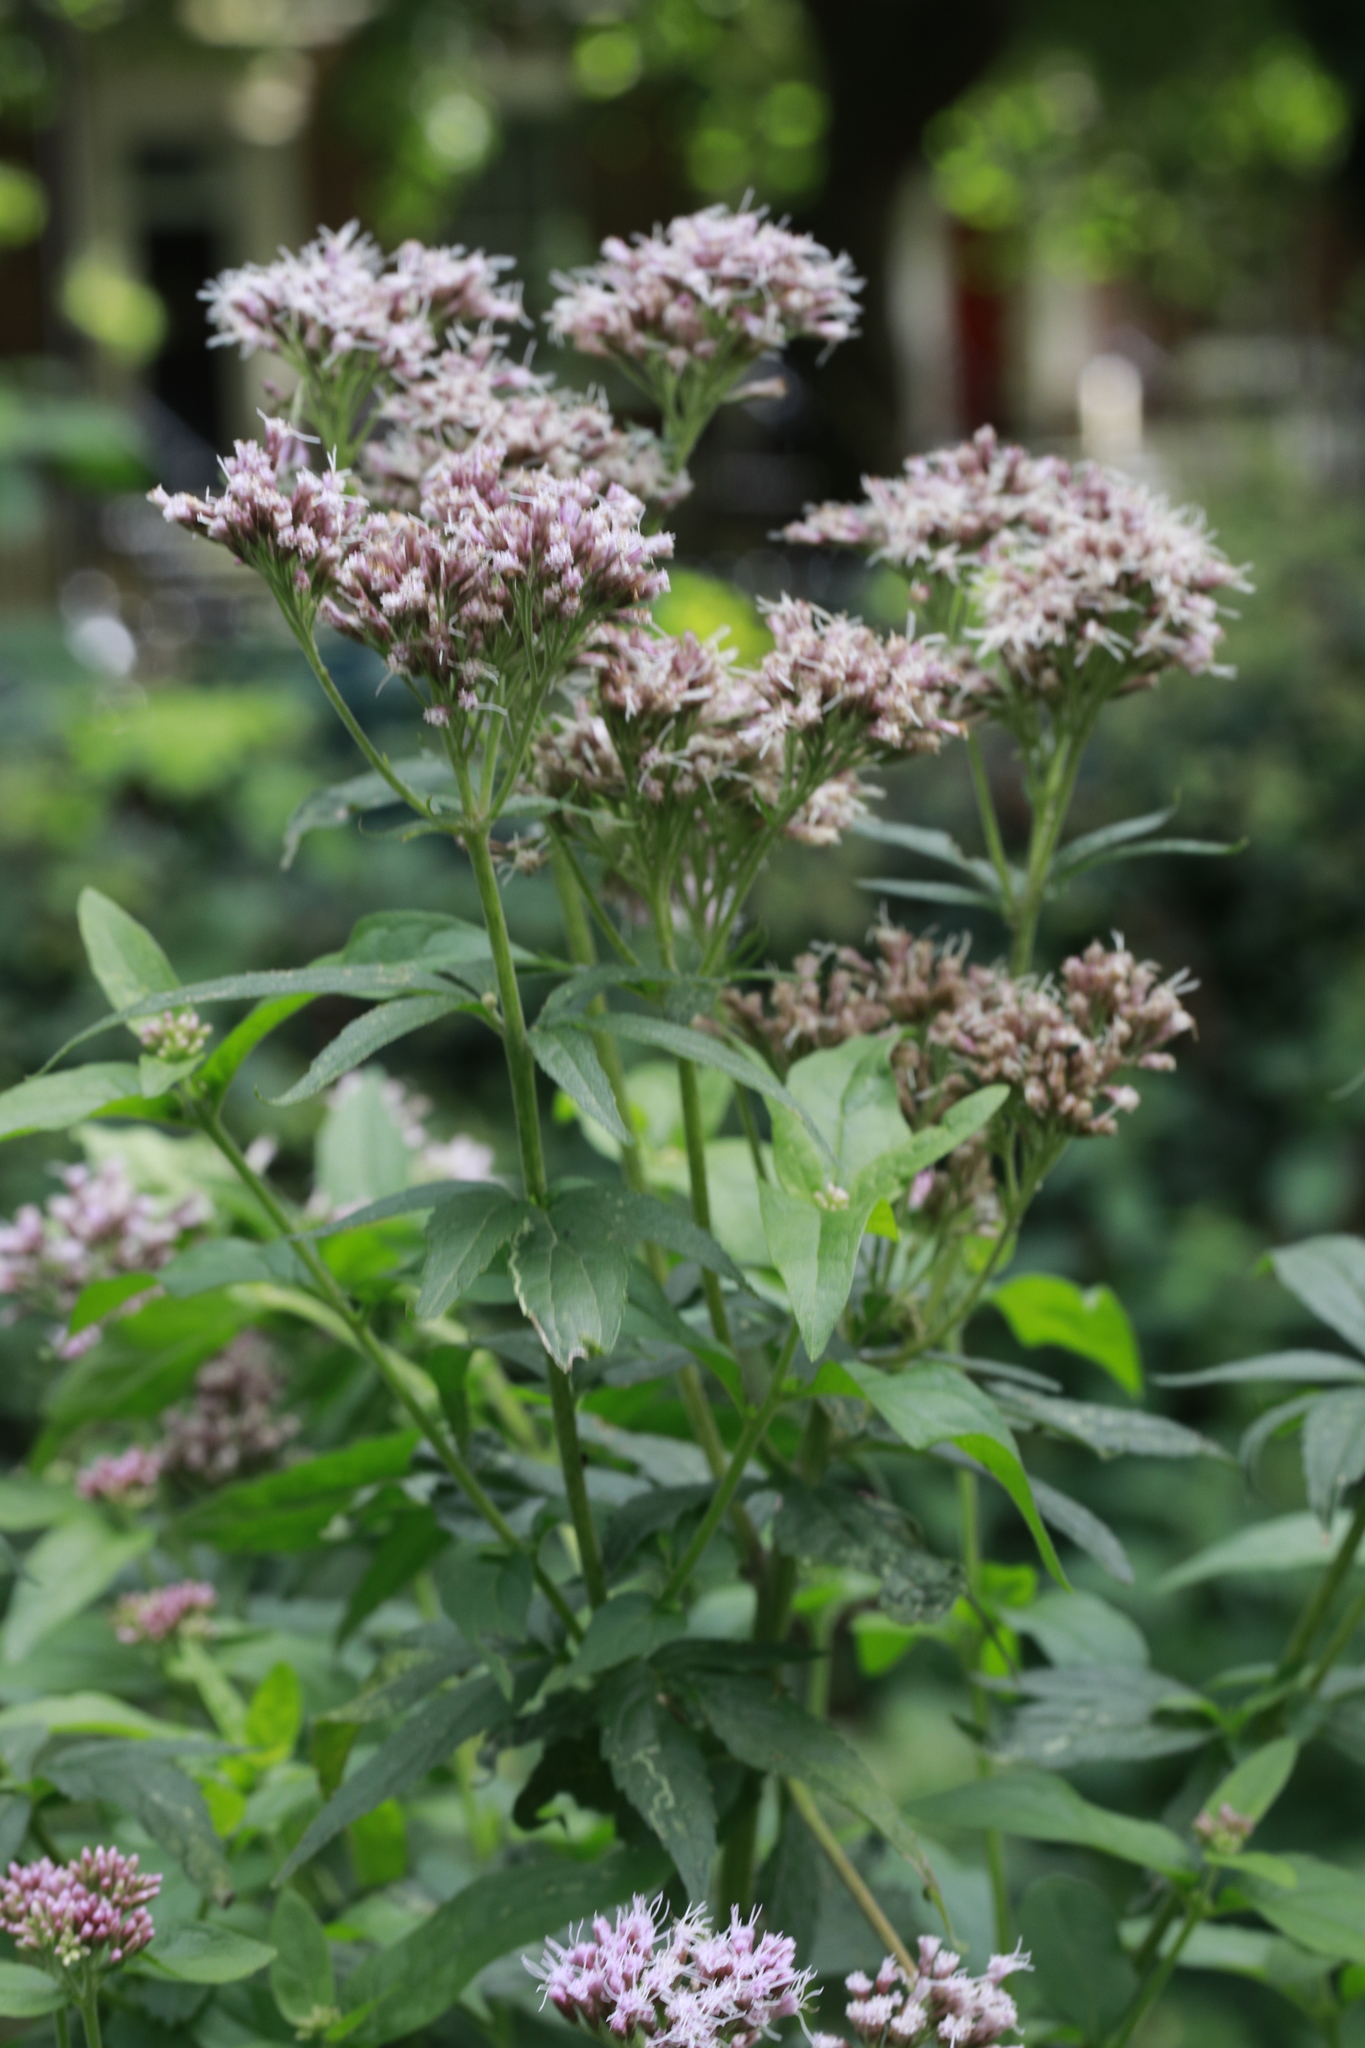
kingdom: Plantae
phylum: Tracheophyta
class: Magnoliopsida
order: Asterales
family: Asteraceae
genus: Eupatorium
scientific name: Eupatorium cannabinum
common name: Hemp-agrimony
